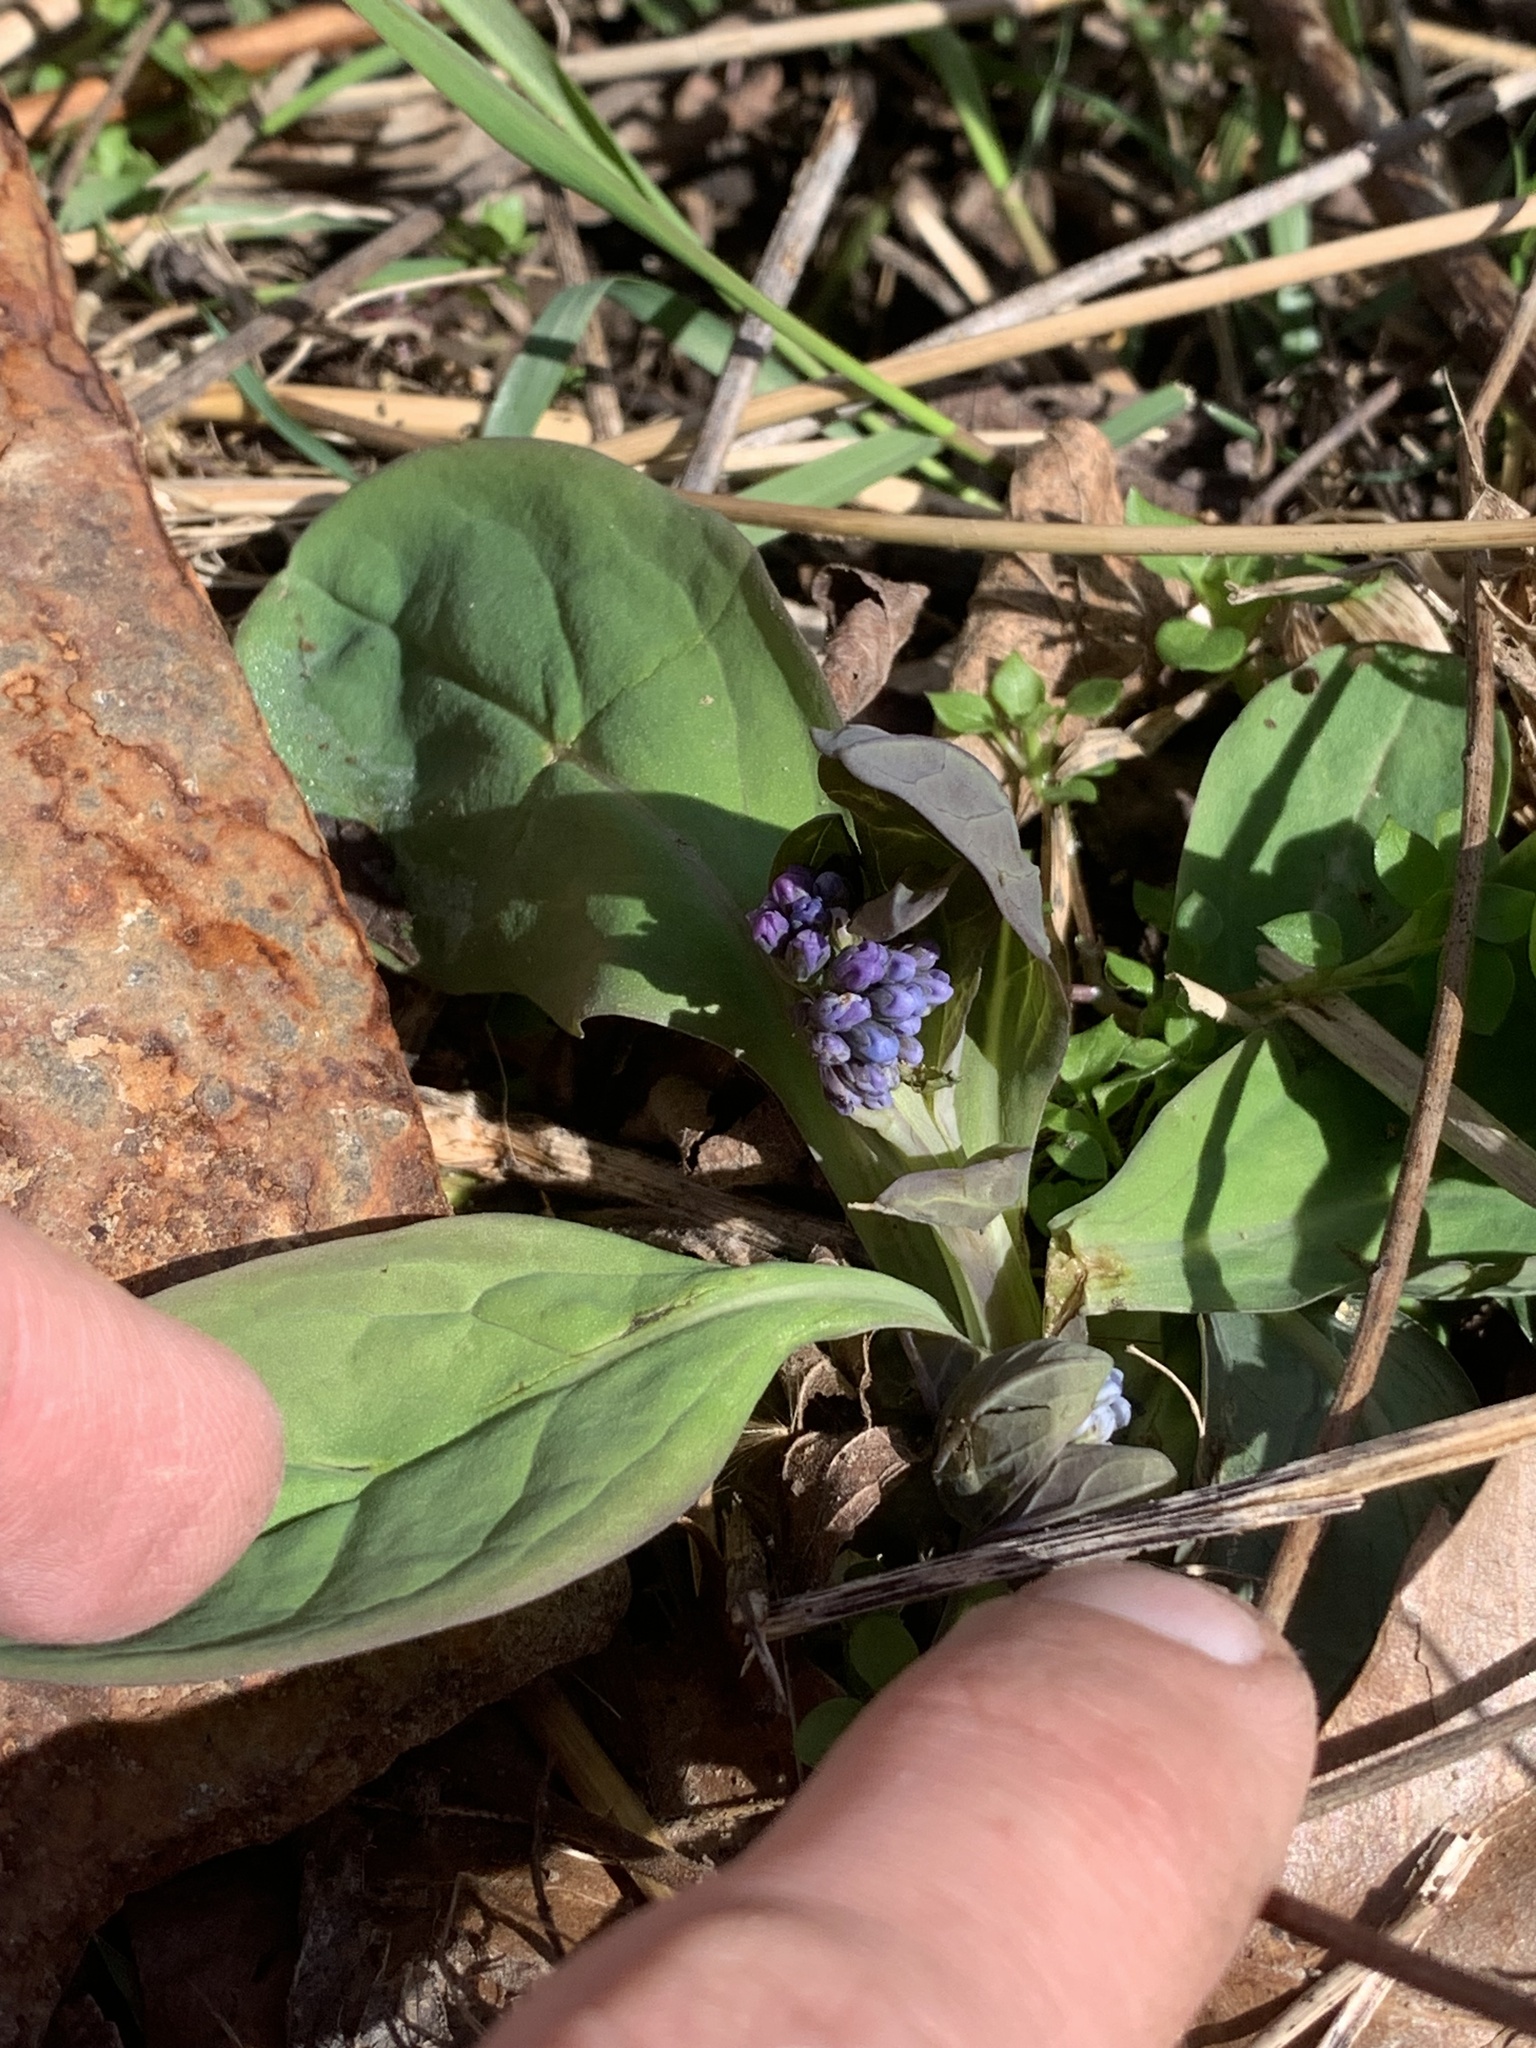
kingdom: Plantae
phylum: Tracheophyta
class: Magnoliopsida
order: Boraginales
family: Boraginaceae
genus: Mertensia
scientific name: Mertensia virginica
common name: Virginia bluebells
